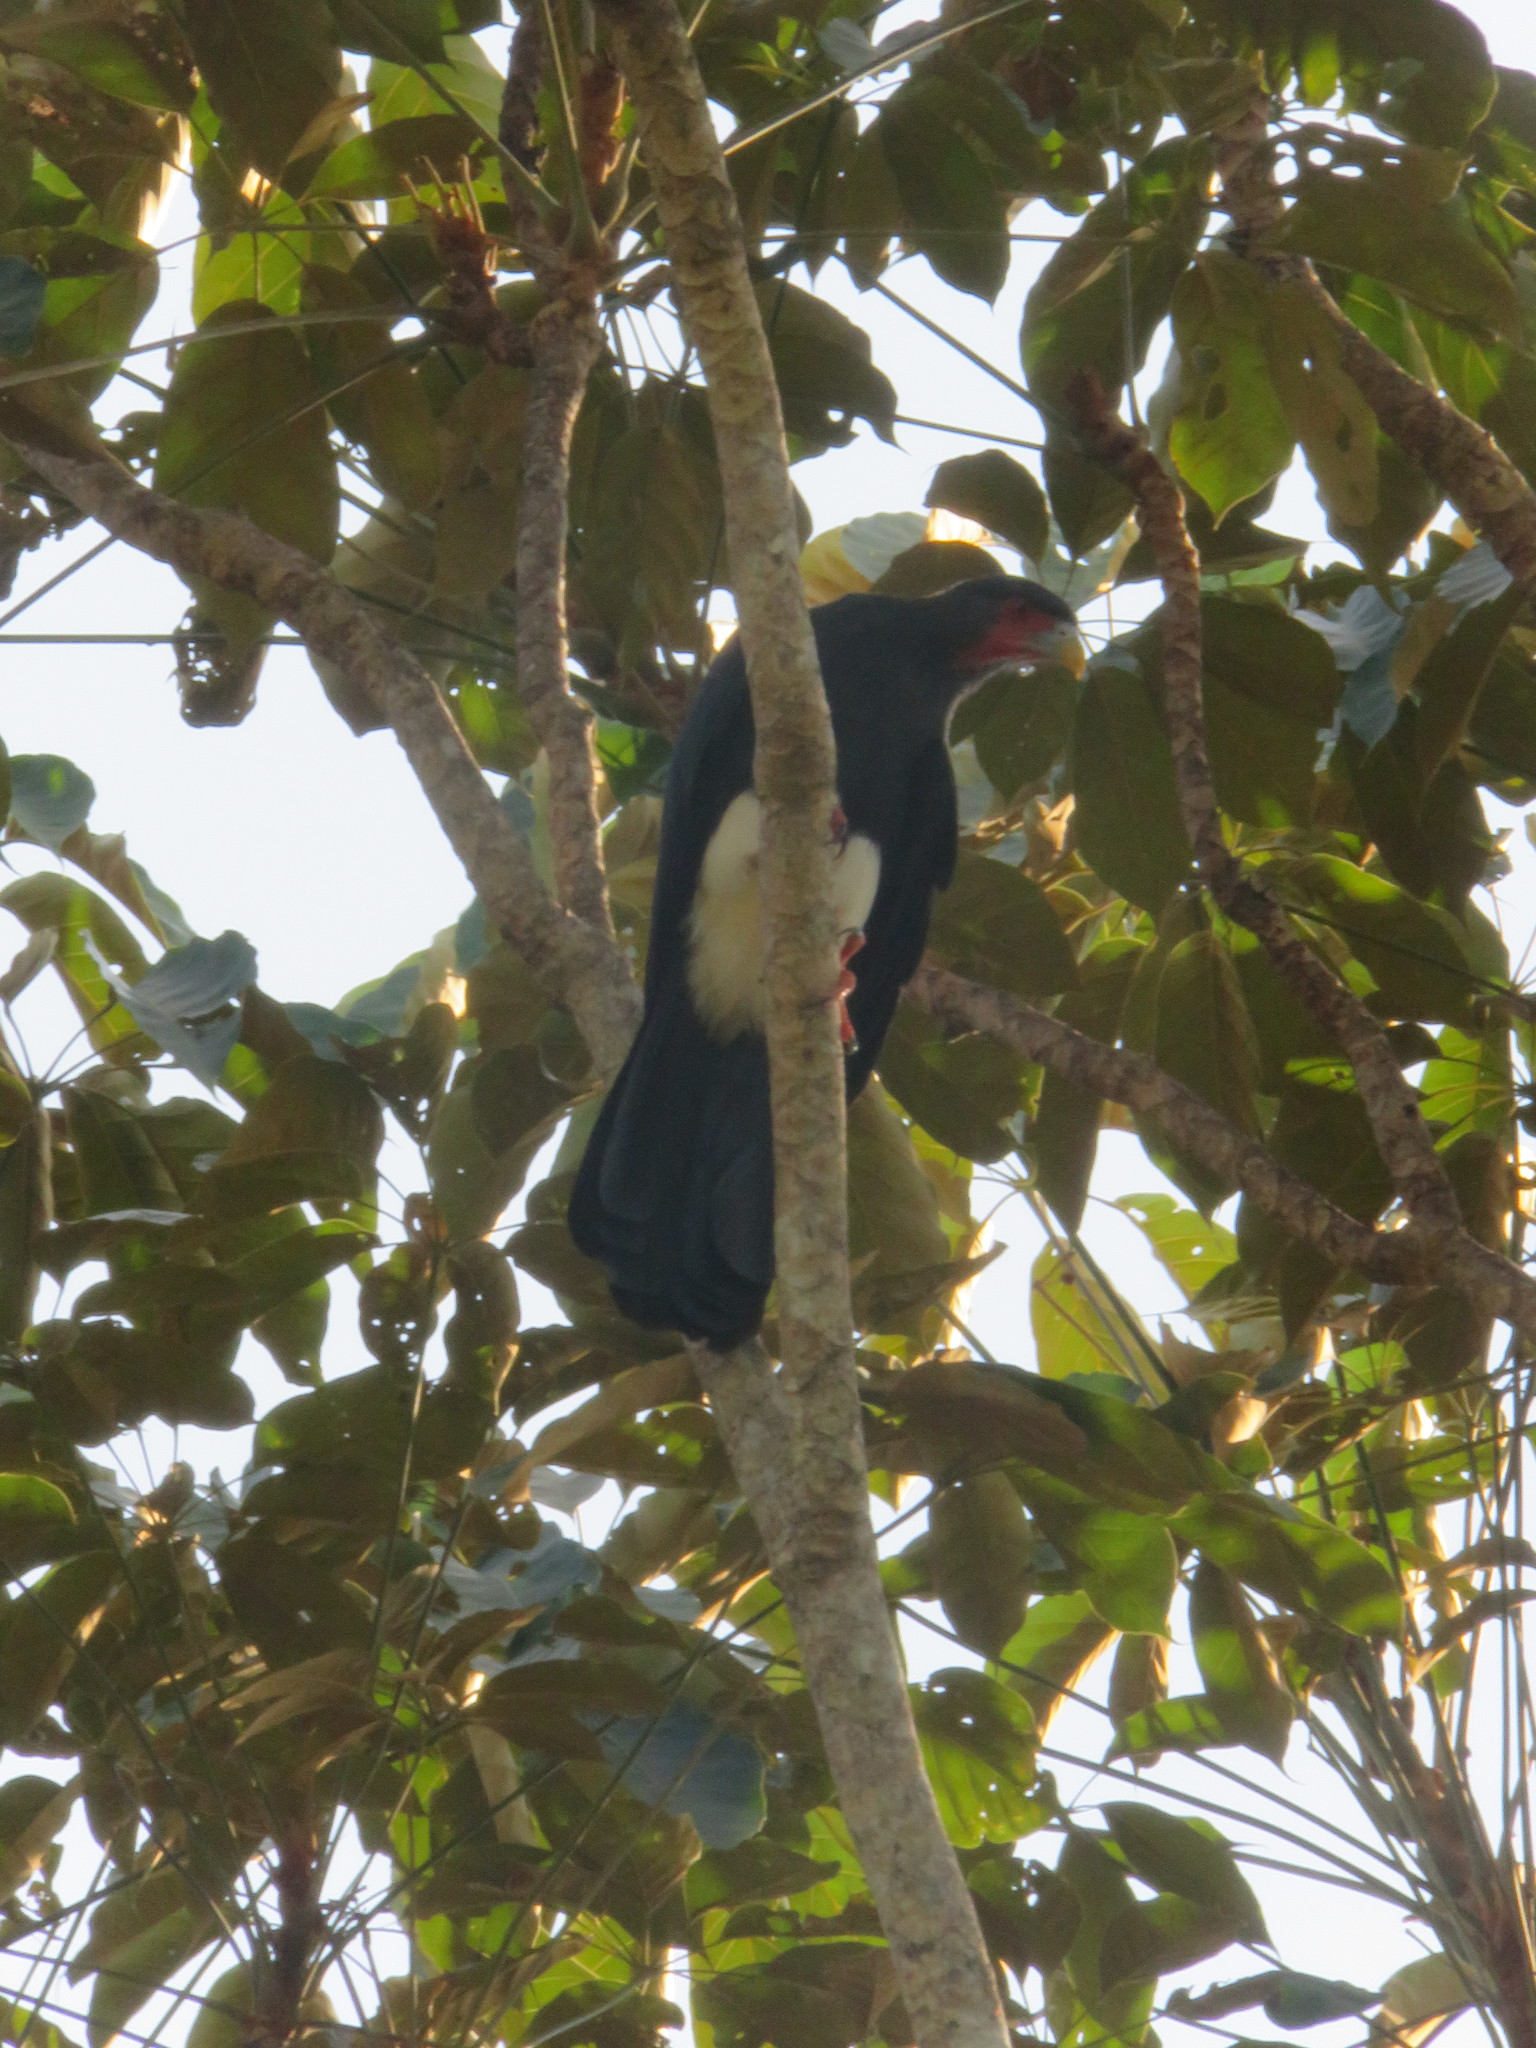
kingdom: Animalia
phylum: Chordata
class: Aves
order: Falconiformes
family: Falconidae
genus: Ibycter
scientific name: Ibycter americanus
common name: Red-throated caracara
